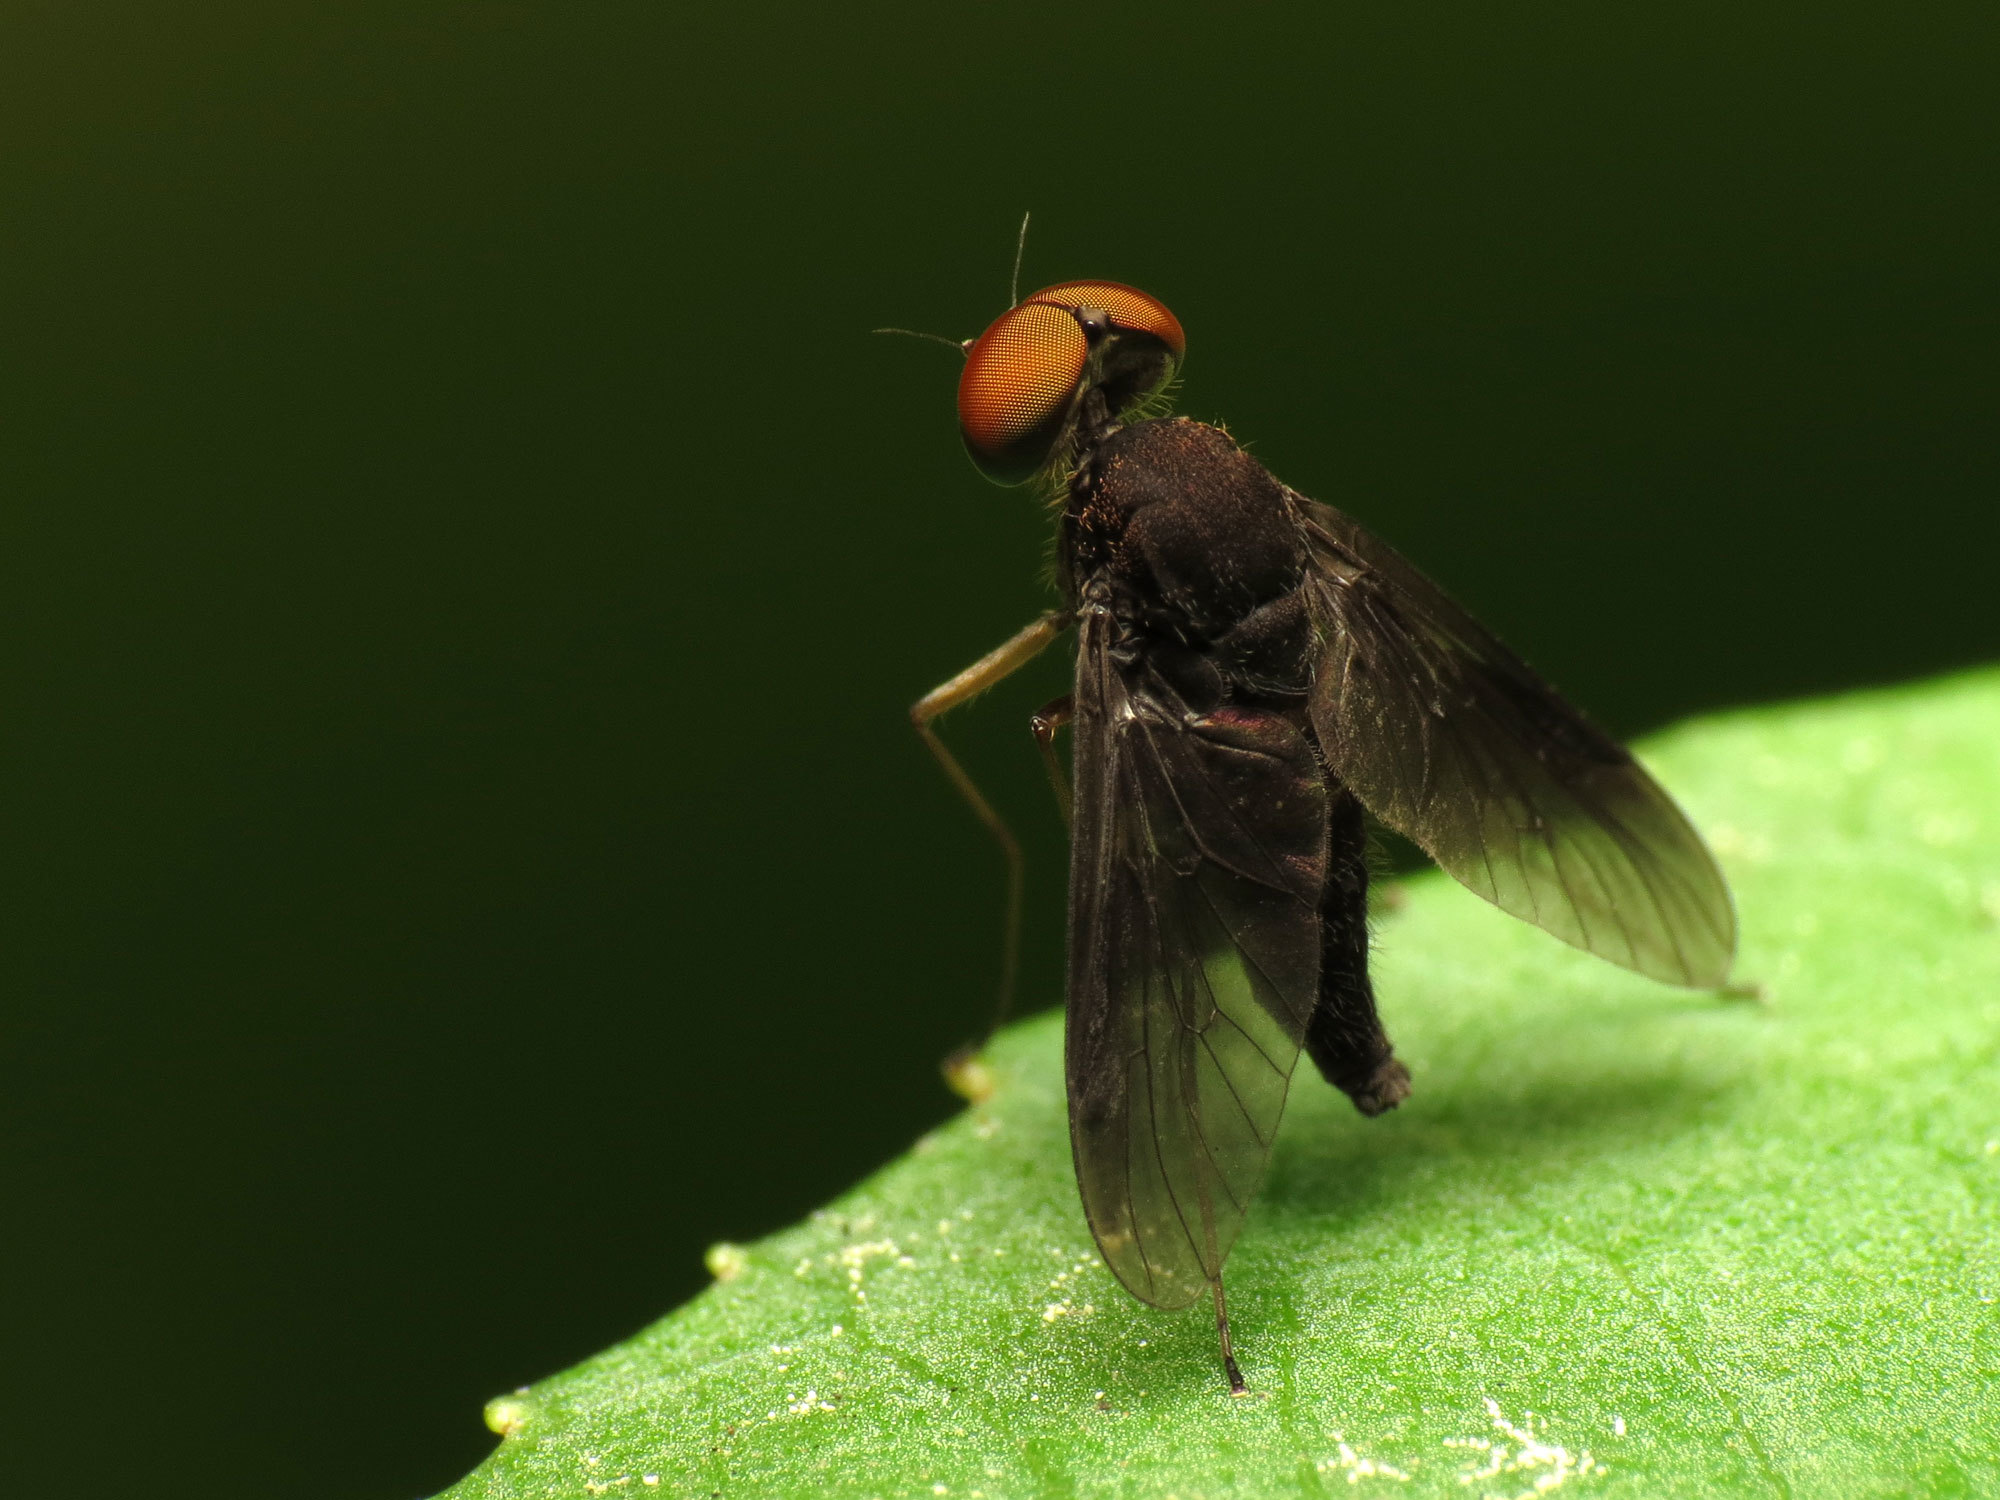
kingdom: Animalia
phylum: Arthropoda
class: Insecta
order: Diptera
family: Rhagionidae
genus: Chrysopilus
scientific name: Chrysopilus quadratus
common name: Quadrate snipe fly
